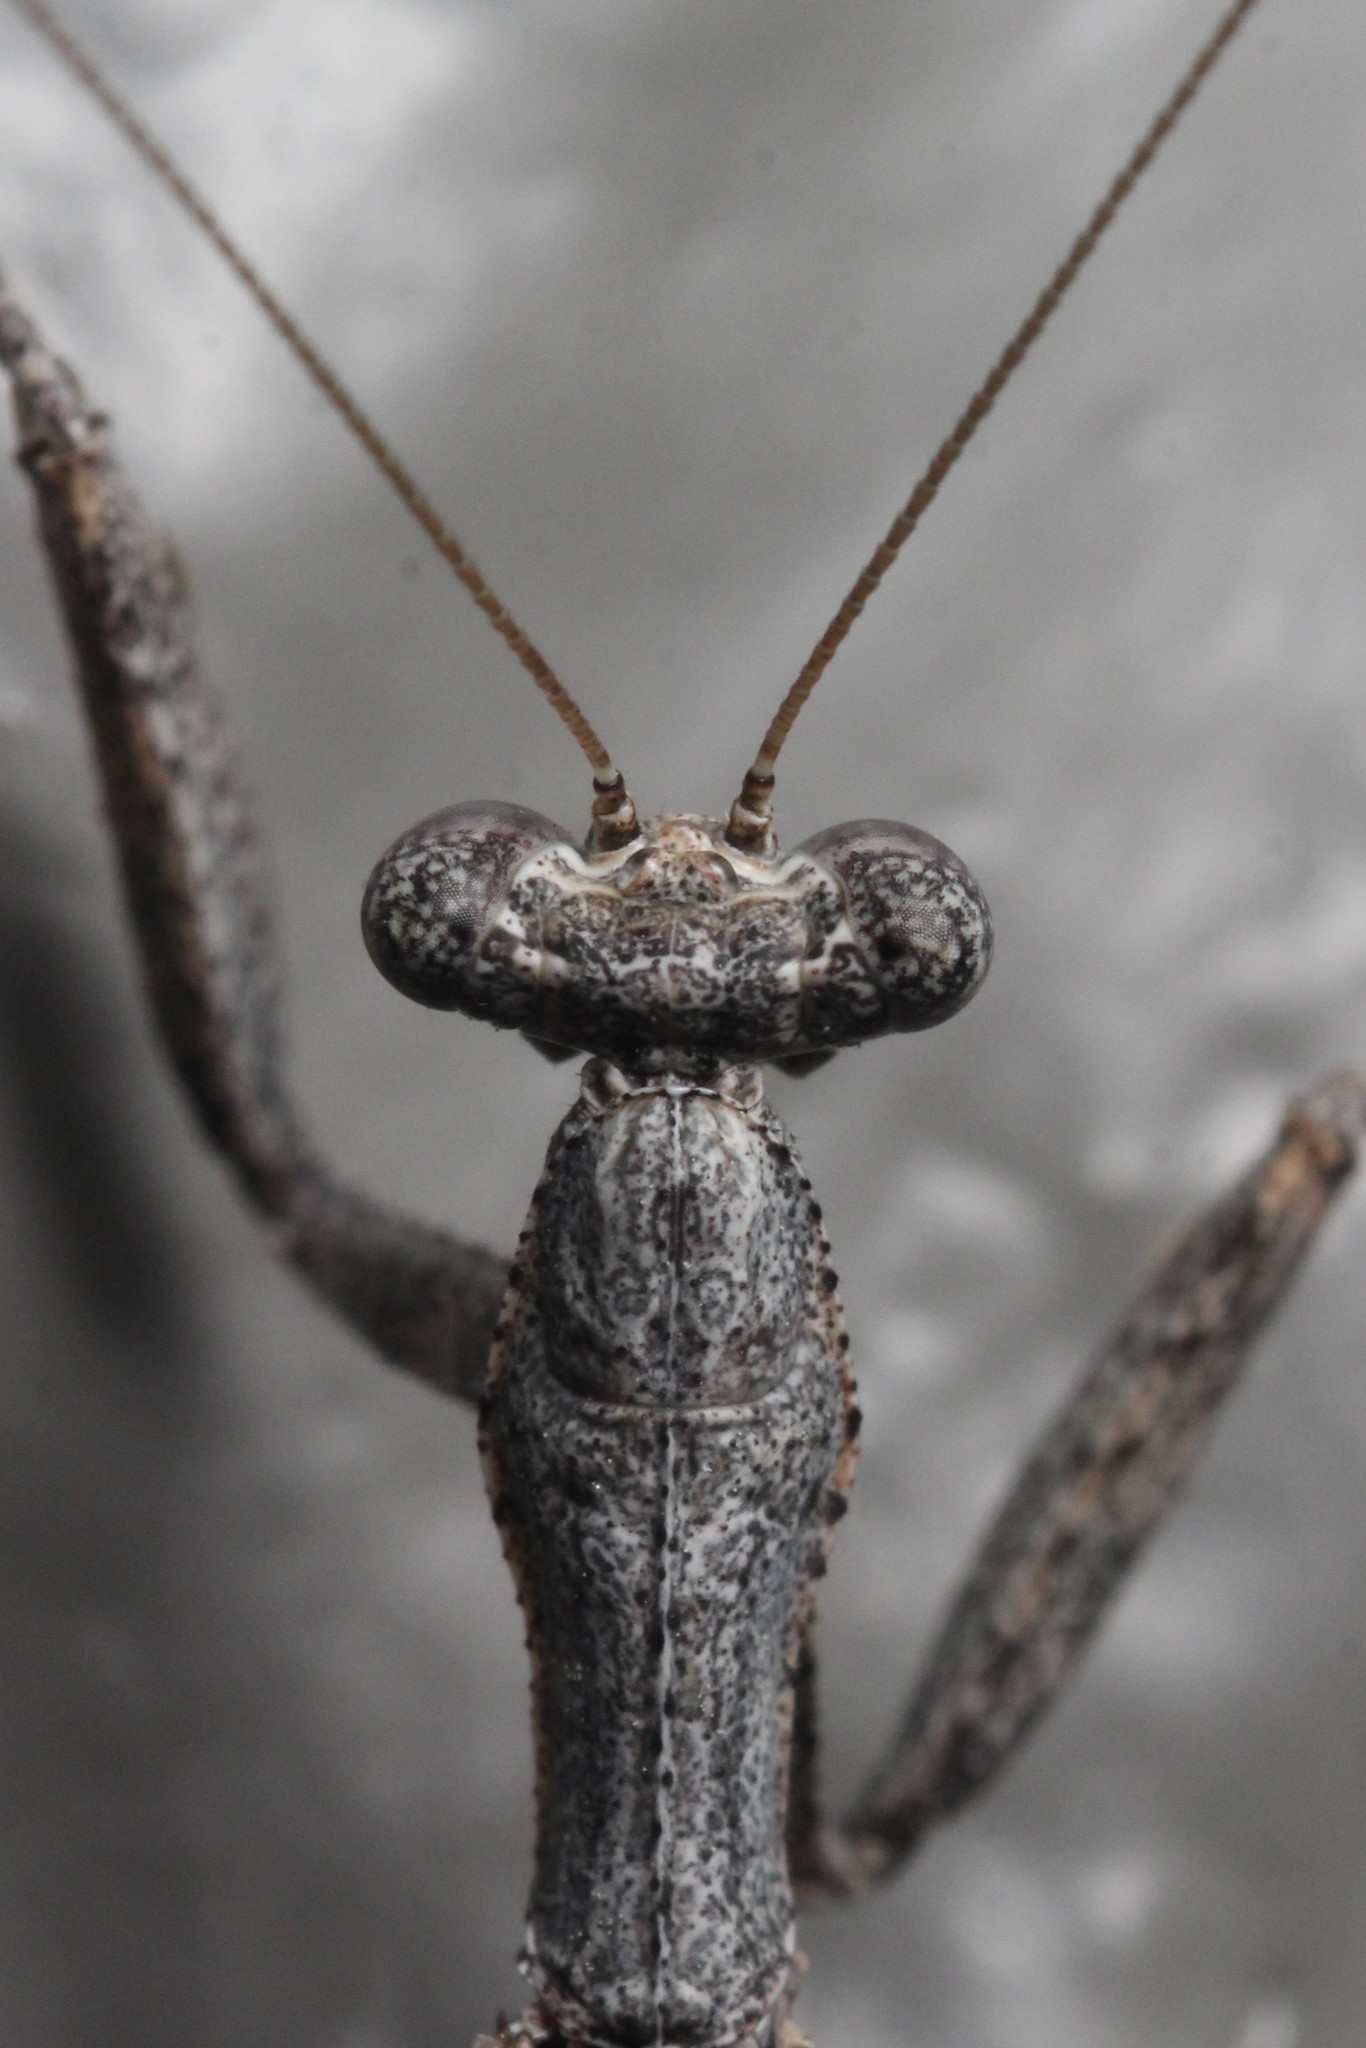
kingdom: Animalia
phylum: Arthropoda
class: Insecta
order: Mantodea
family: Amelidae
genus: Litaneutria
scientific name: Litaneutria ocularis
